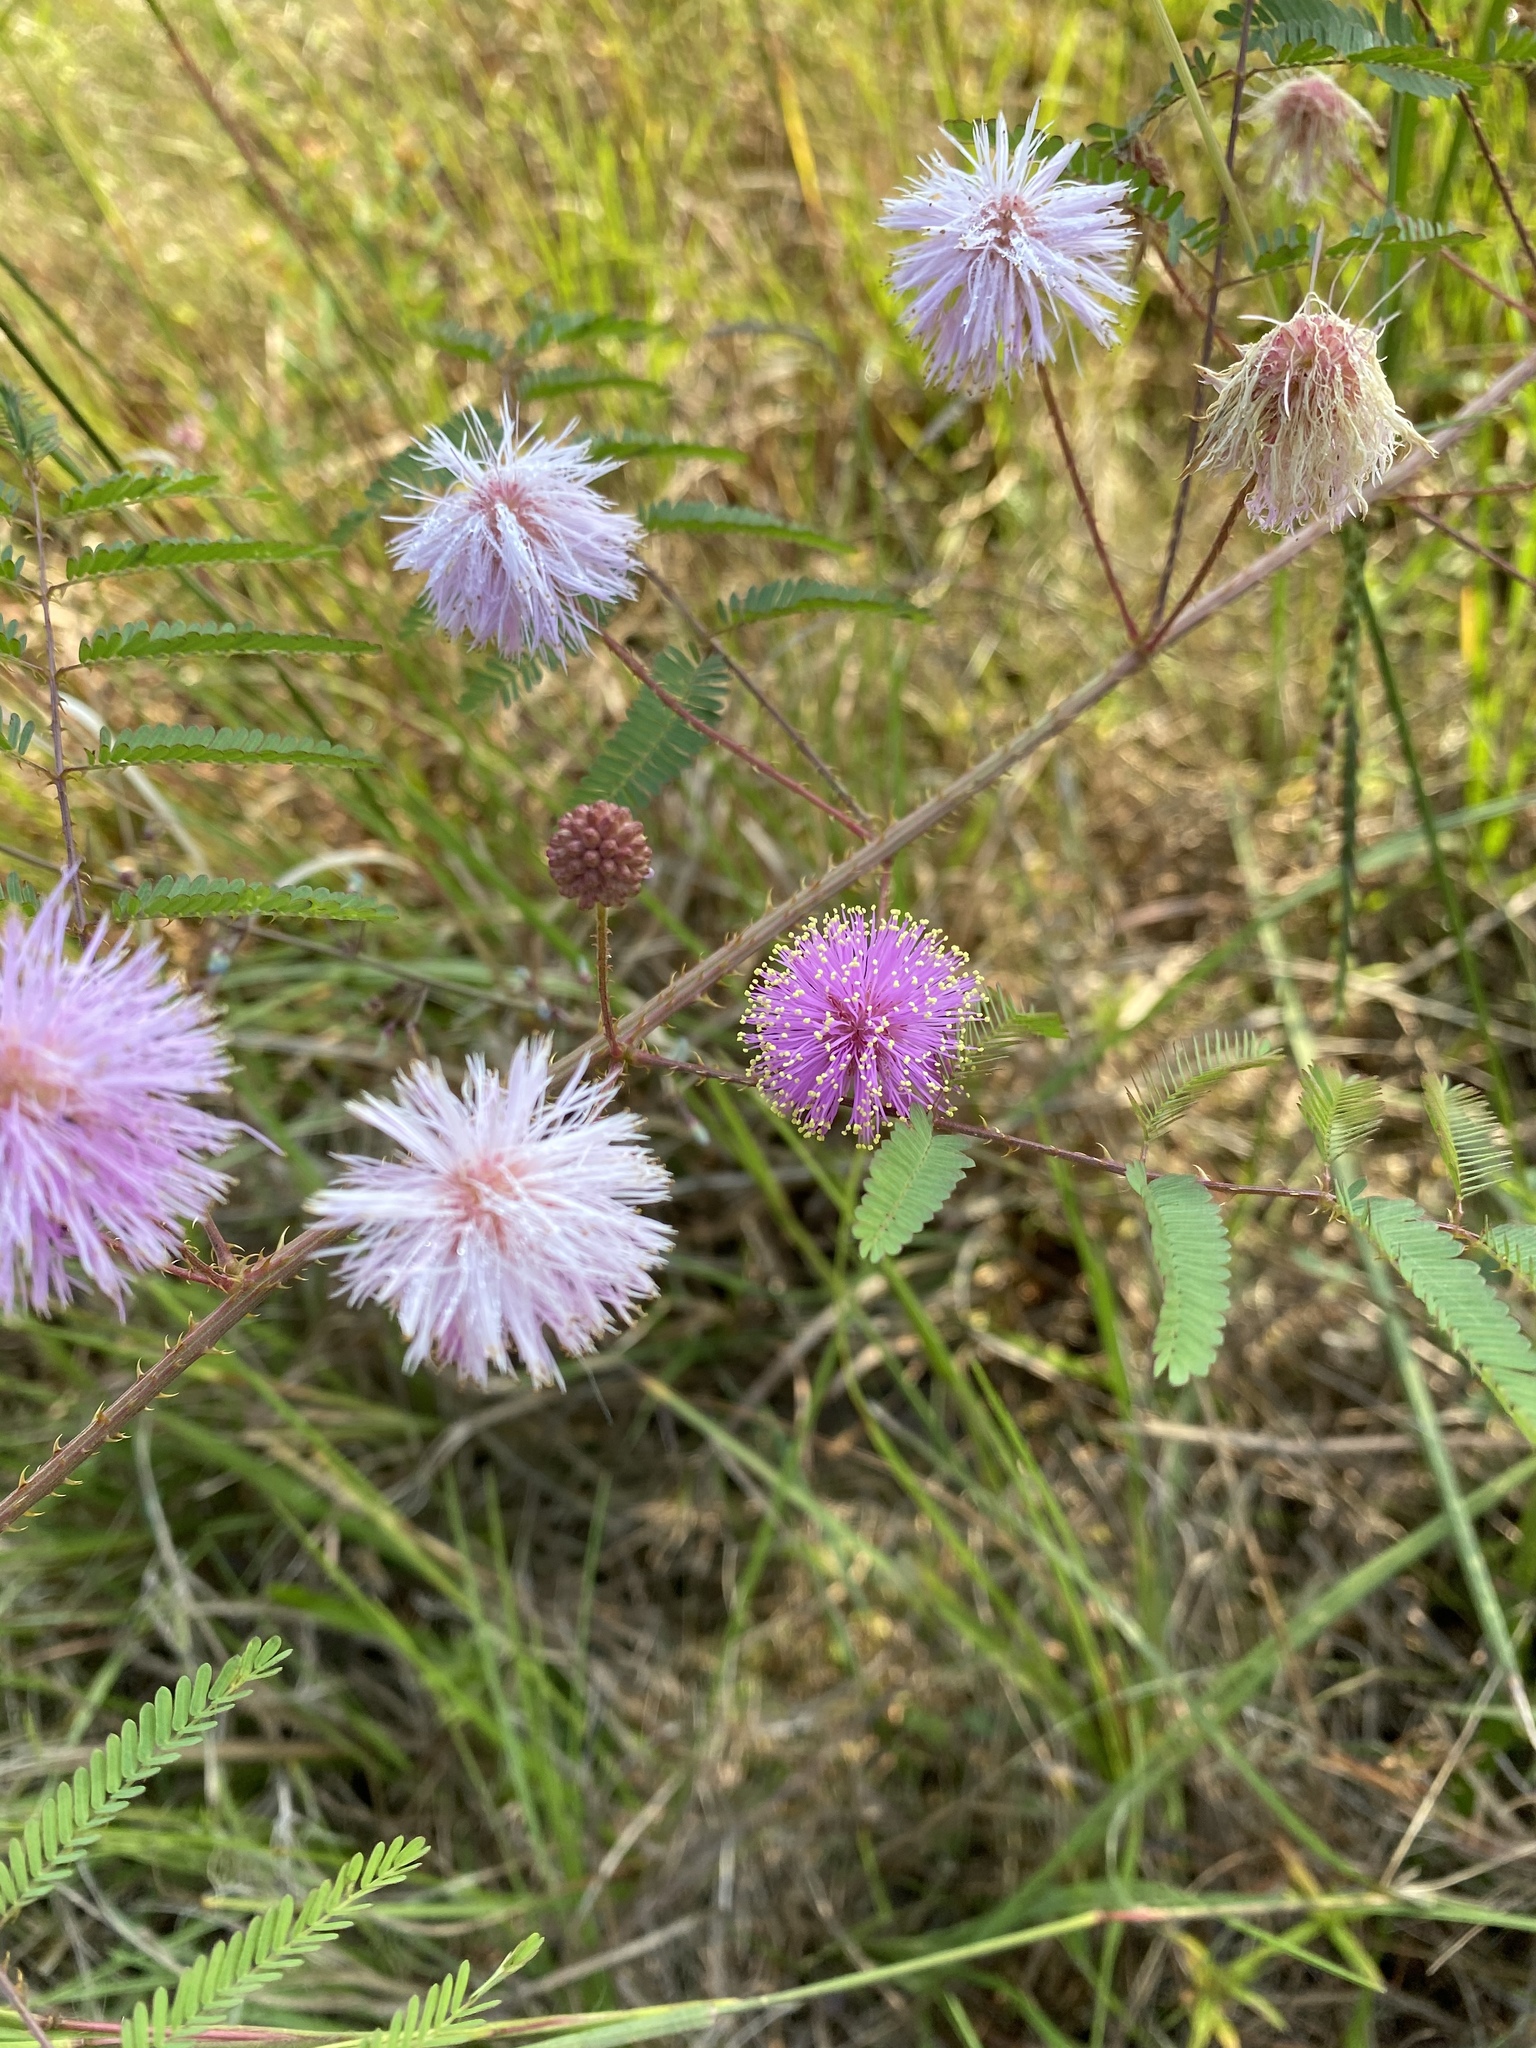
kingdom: Plantae
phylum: Tracheophyta
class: Magnoliopsida
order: Fabales
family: Fabaceae
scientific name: Fabaceae
